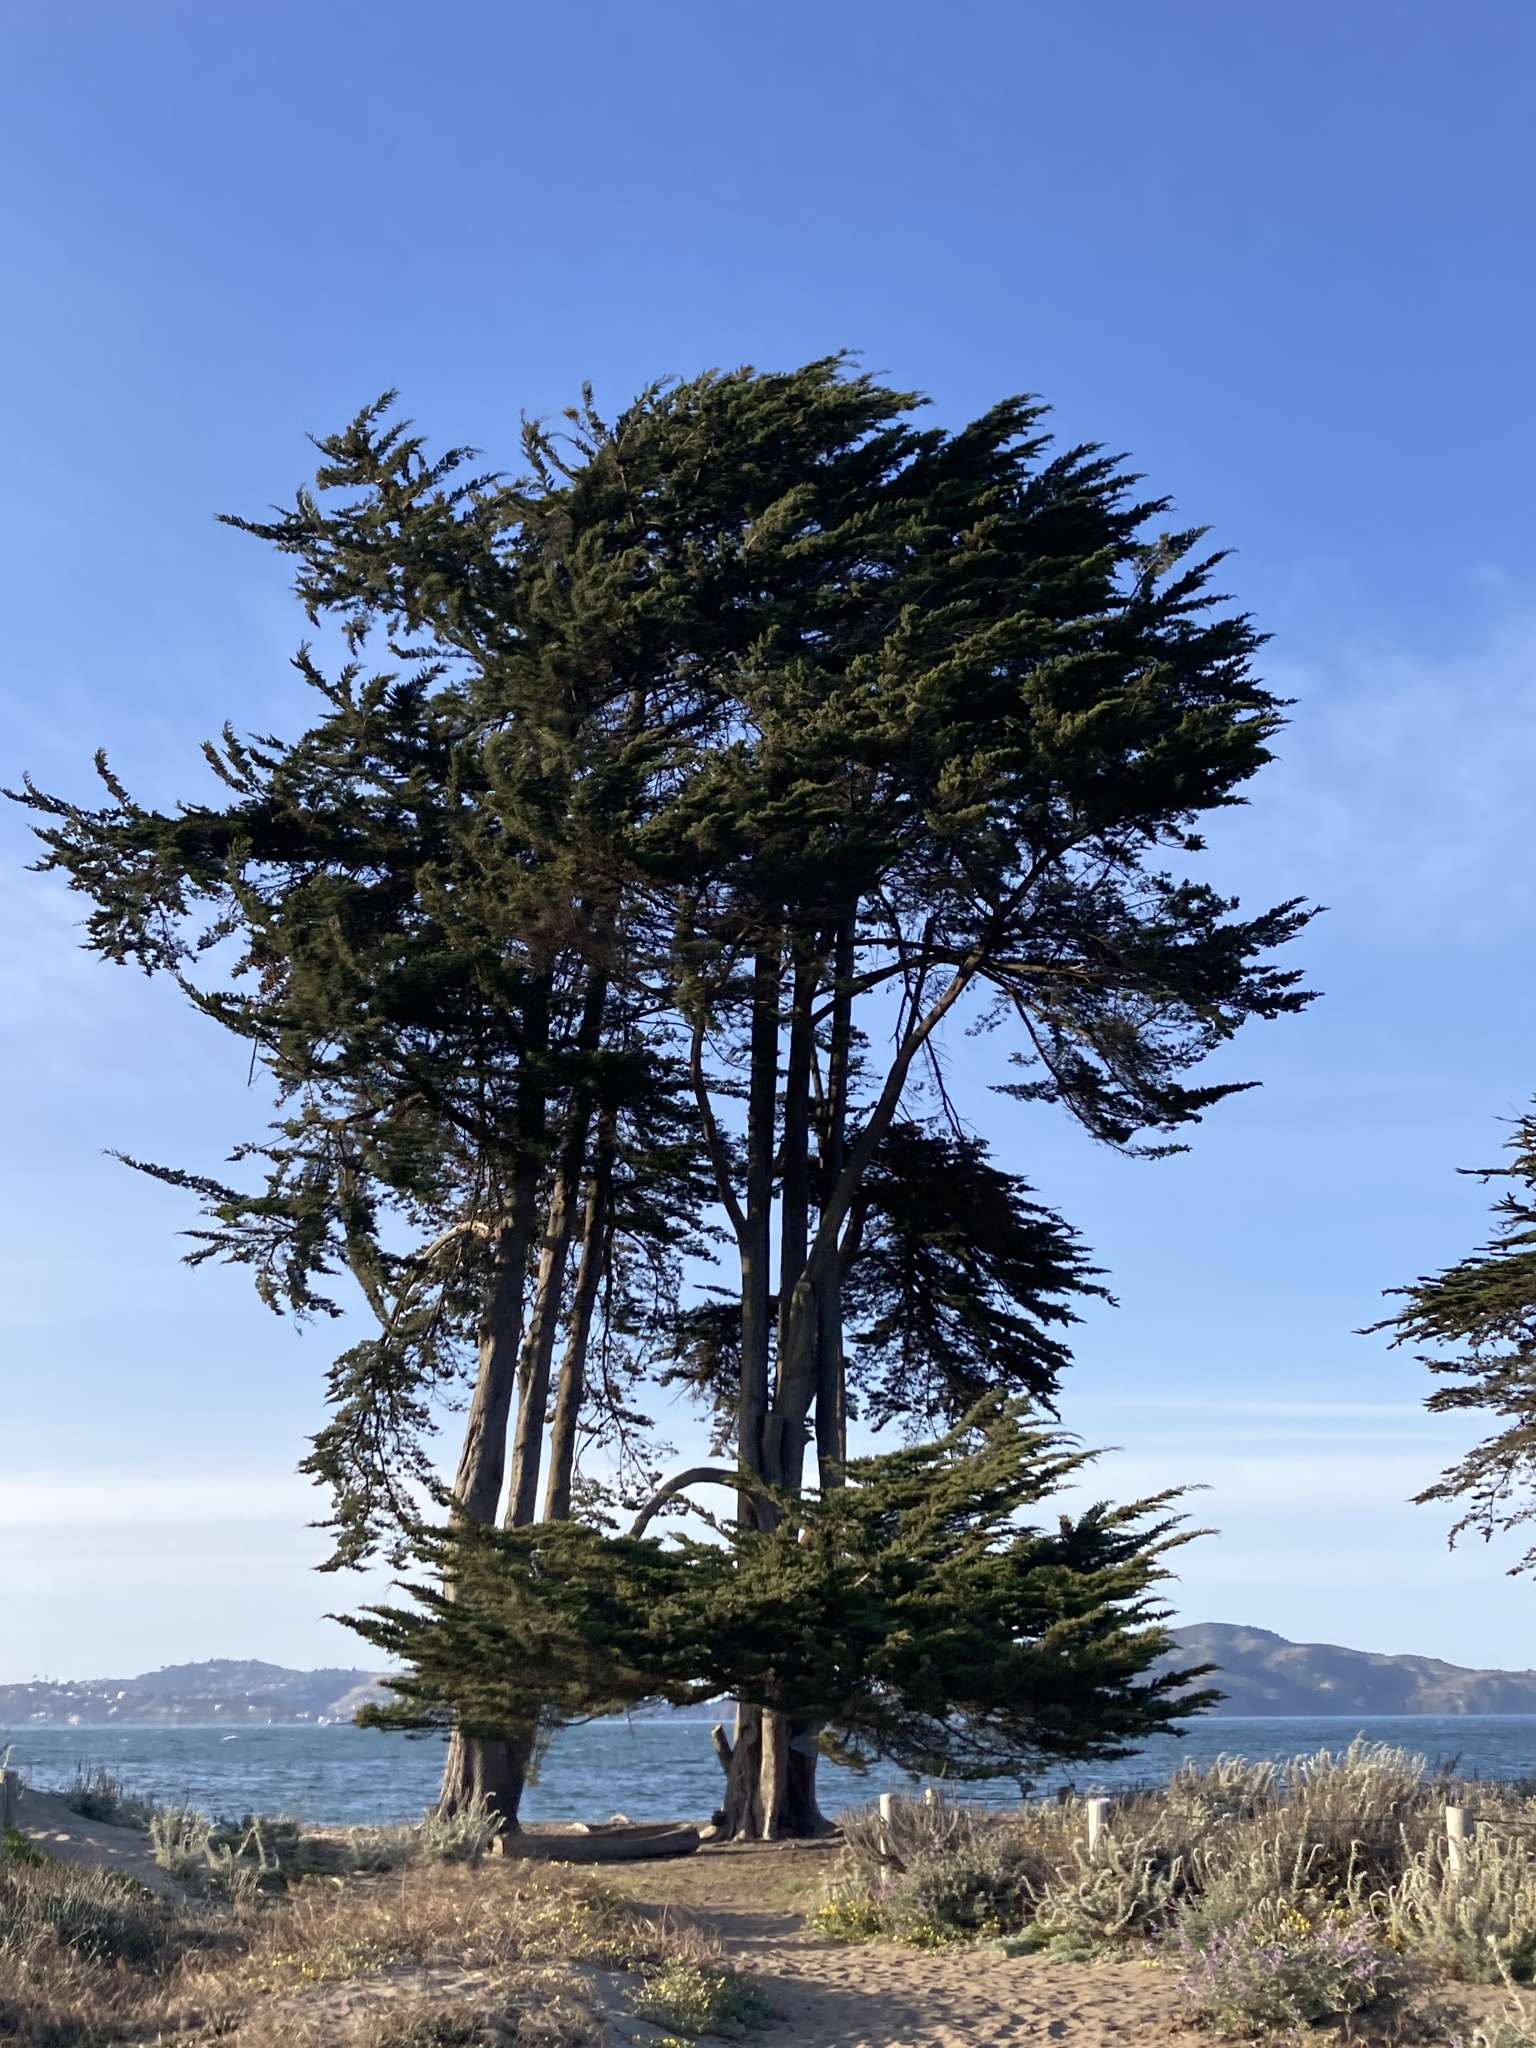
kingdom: Plantae
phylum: Tracheophyta
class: Pinopsida
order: Pinales
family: Cupressaceae
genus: Cupressus
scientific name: Cupressus macrocarpa
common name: Monterey cypress
